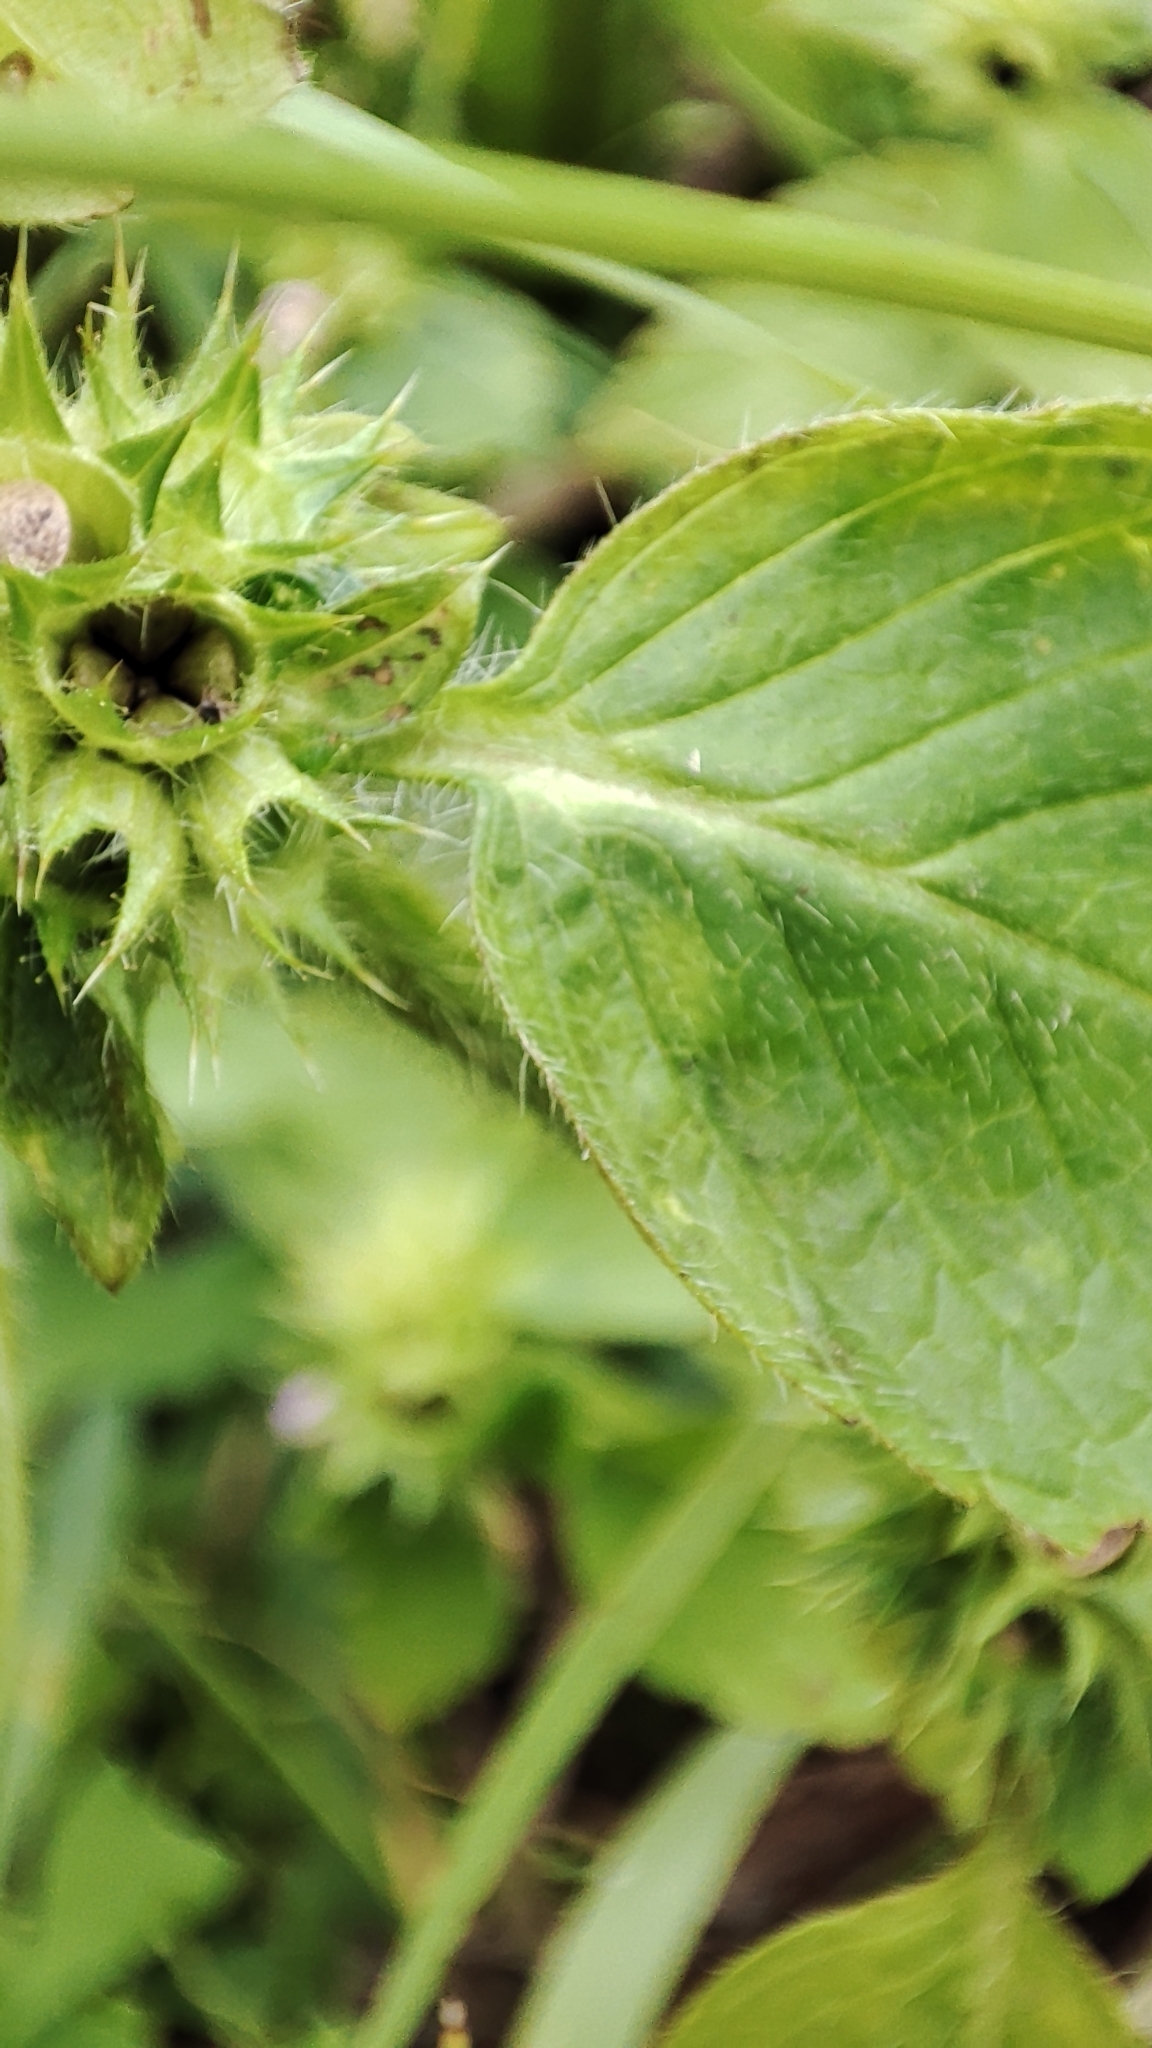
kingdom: Plantae
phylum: Tracheophyta
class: Magnoliopsida
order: Lamiales
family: Lamiaceae
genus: Galeopsis
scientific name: Galeopsis bifida
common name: Bifid hemp-nettle
